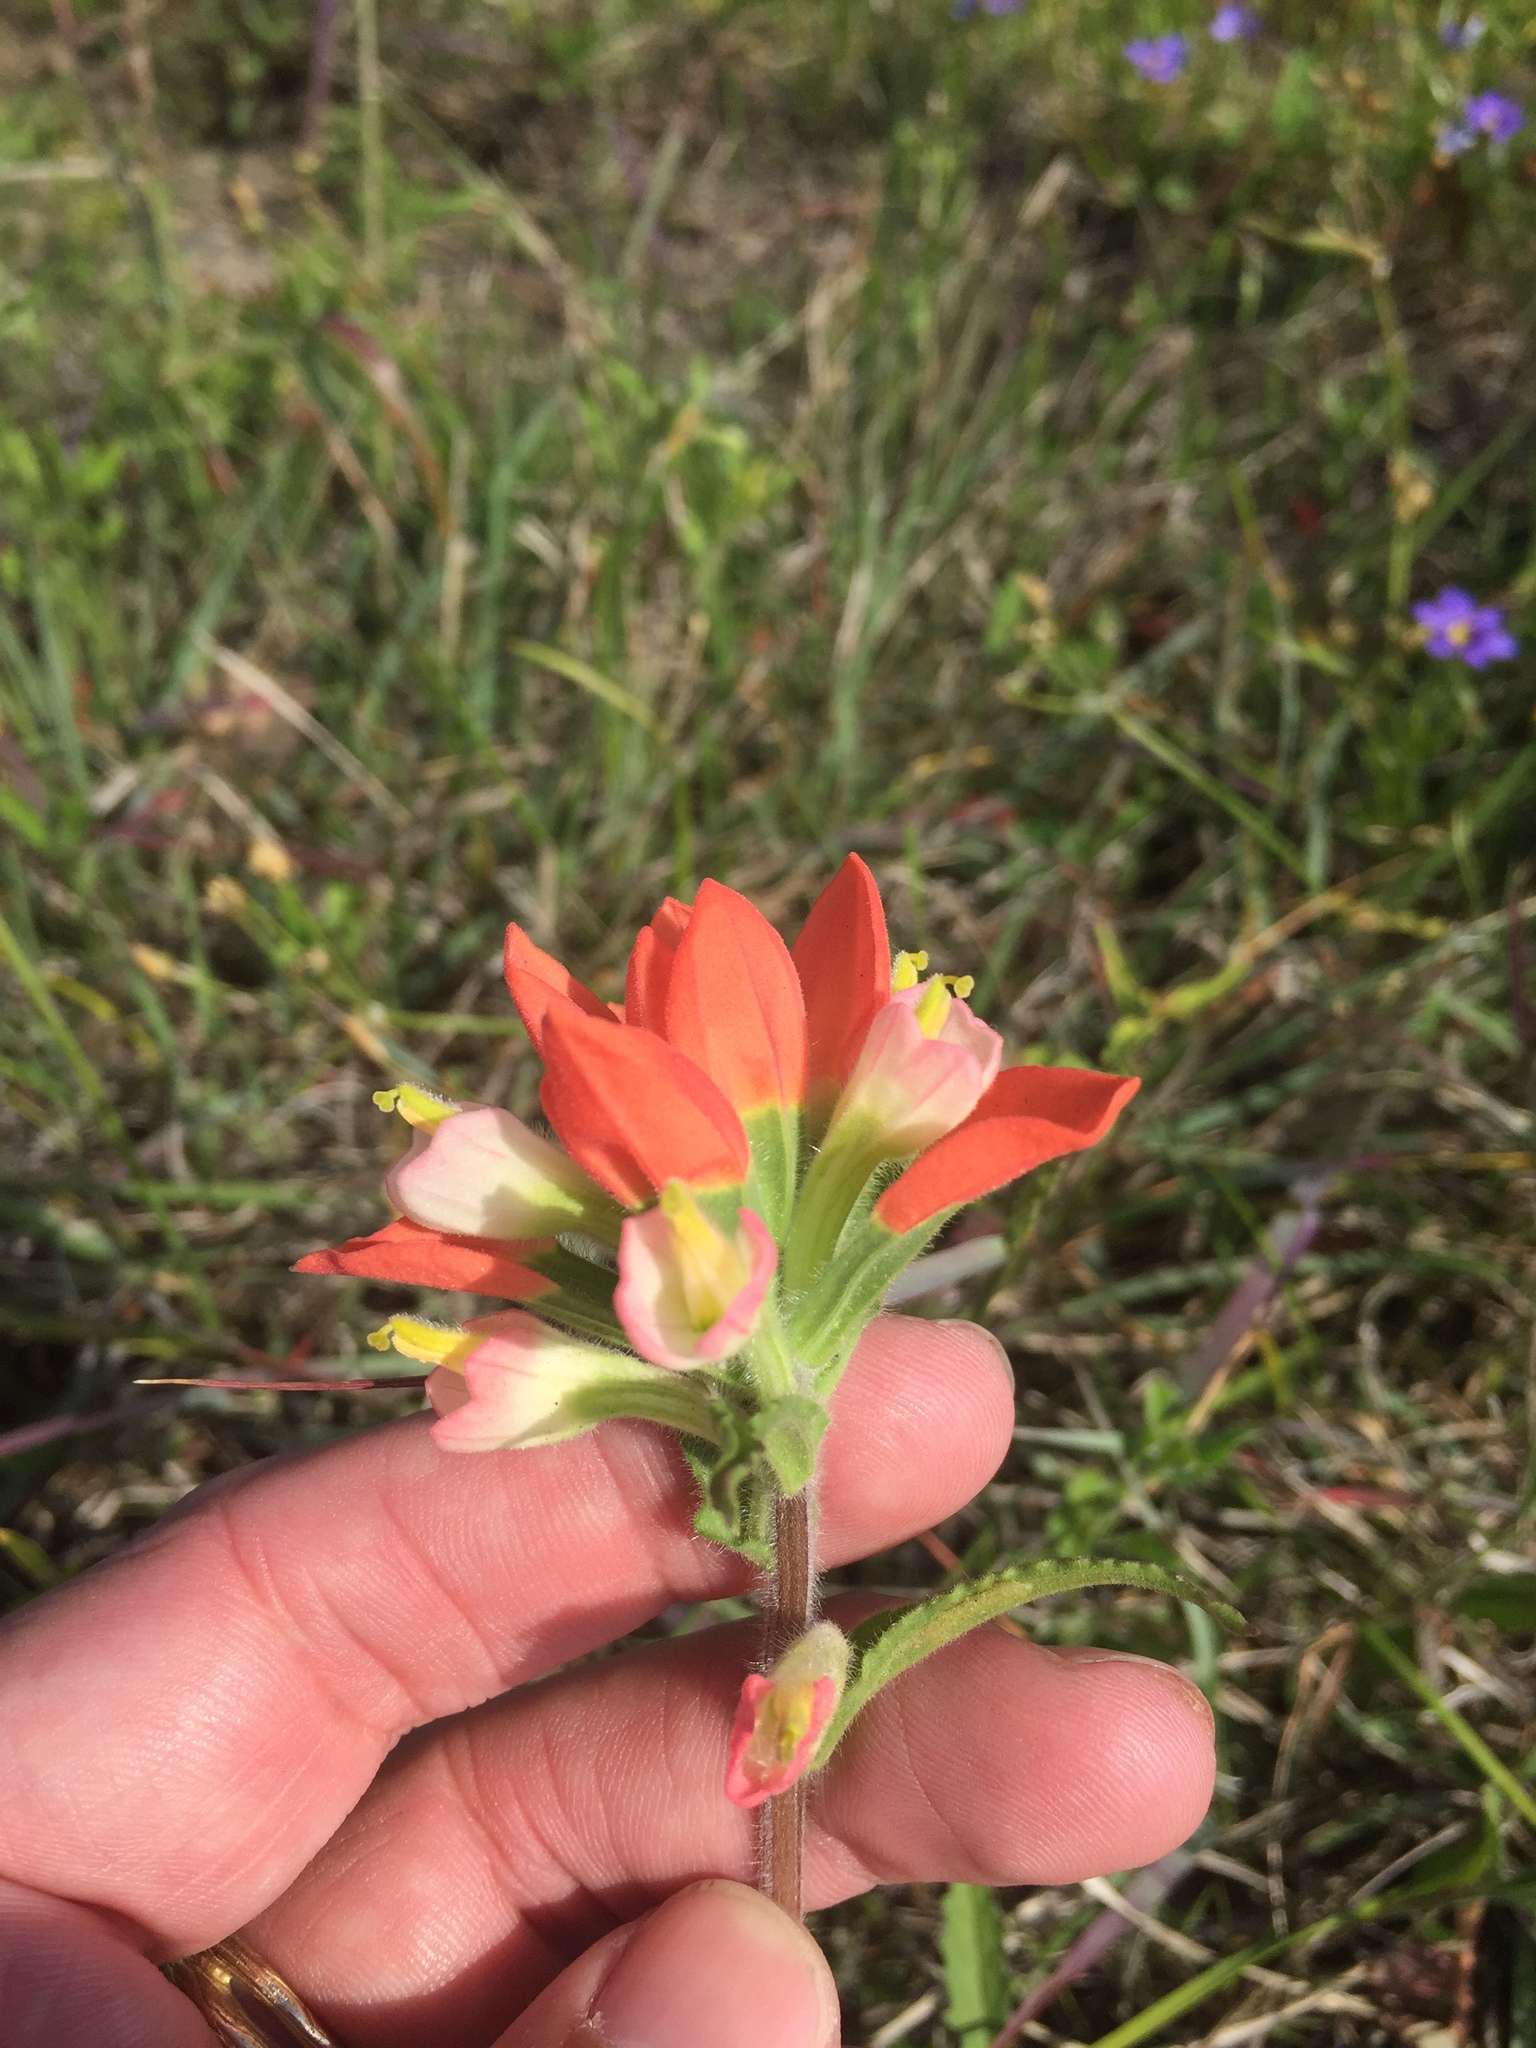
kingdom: Plantae
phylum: Tracheophyta
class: Magnoliopsida
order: Lamiales
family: Orobanchaceae
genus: Castilleja
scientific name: Castilleja indivisa
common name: Texas paintbrush
